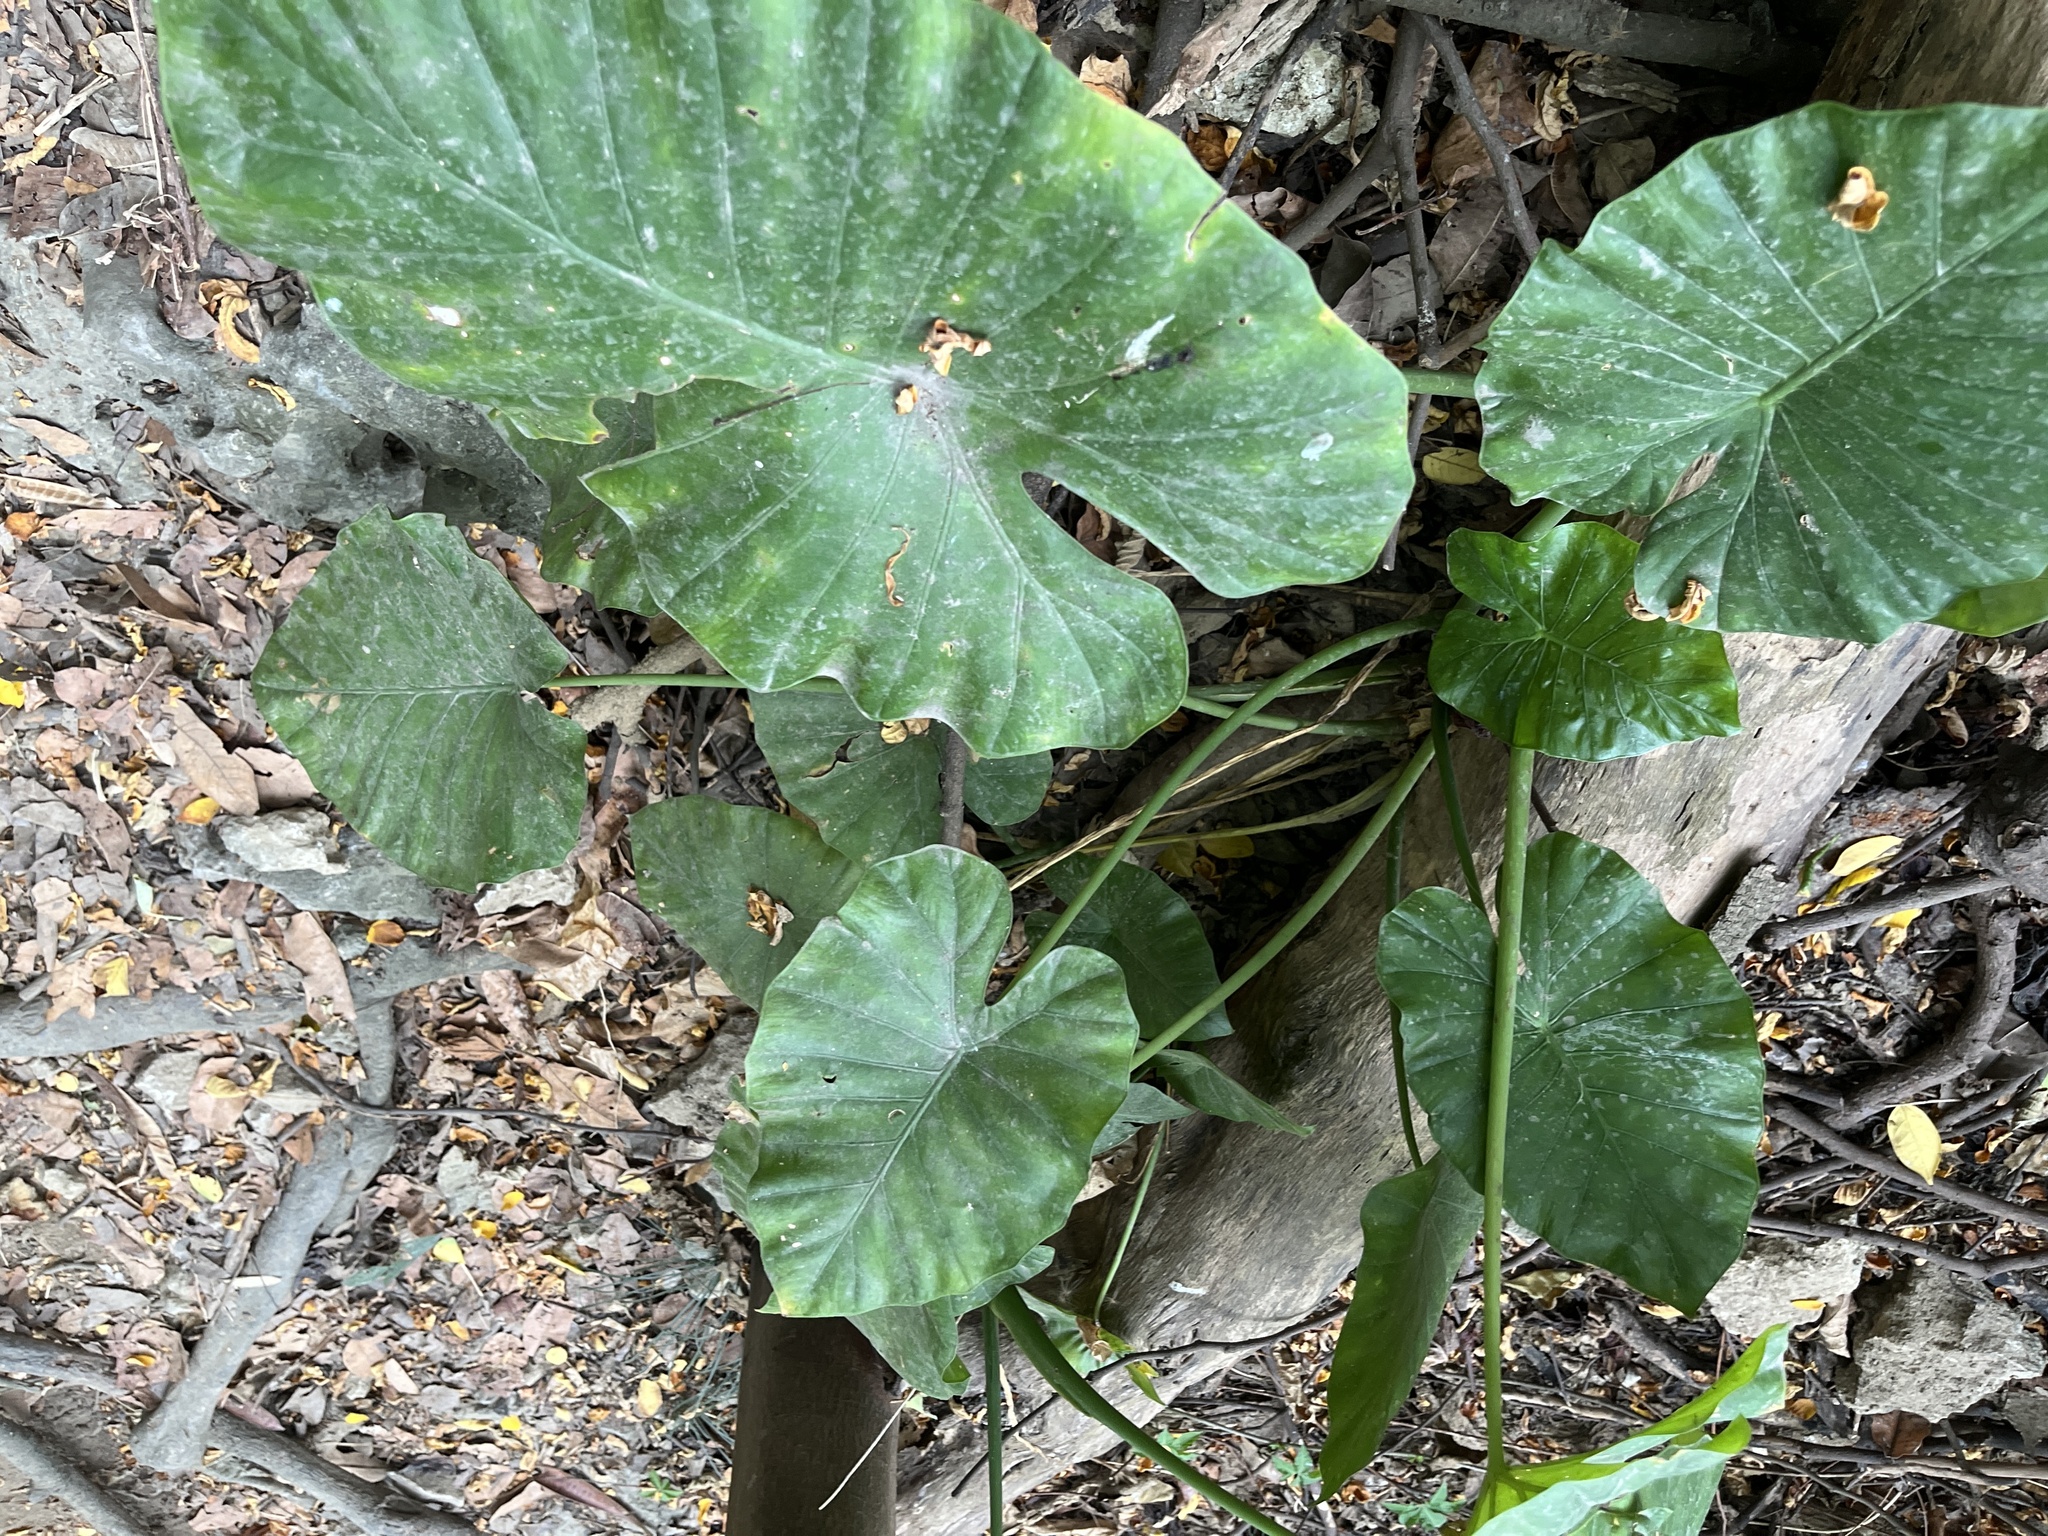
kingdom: Plantae
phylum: Tracheophyta
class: Liliopsida
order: Alismatales
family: Araceae
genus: Alocasia
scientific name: Alocasia odora
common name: Asian taro
